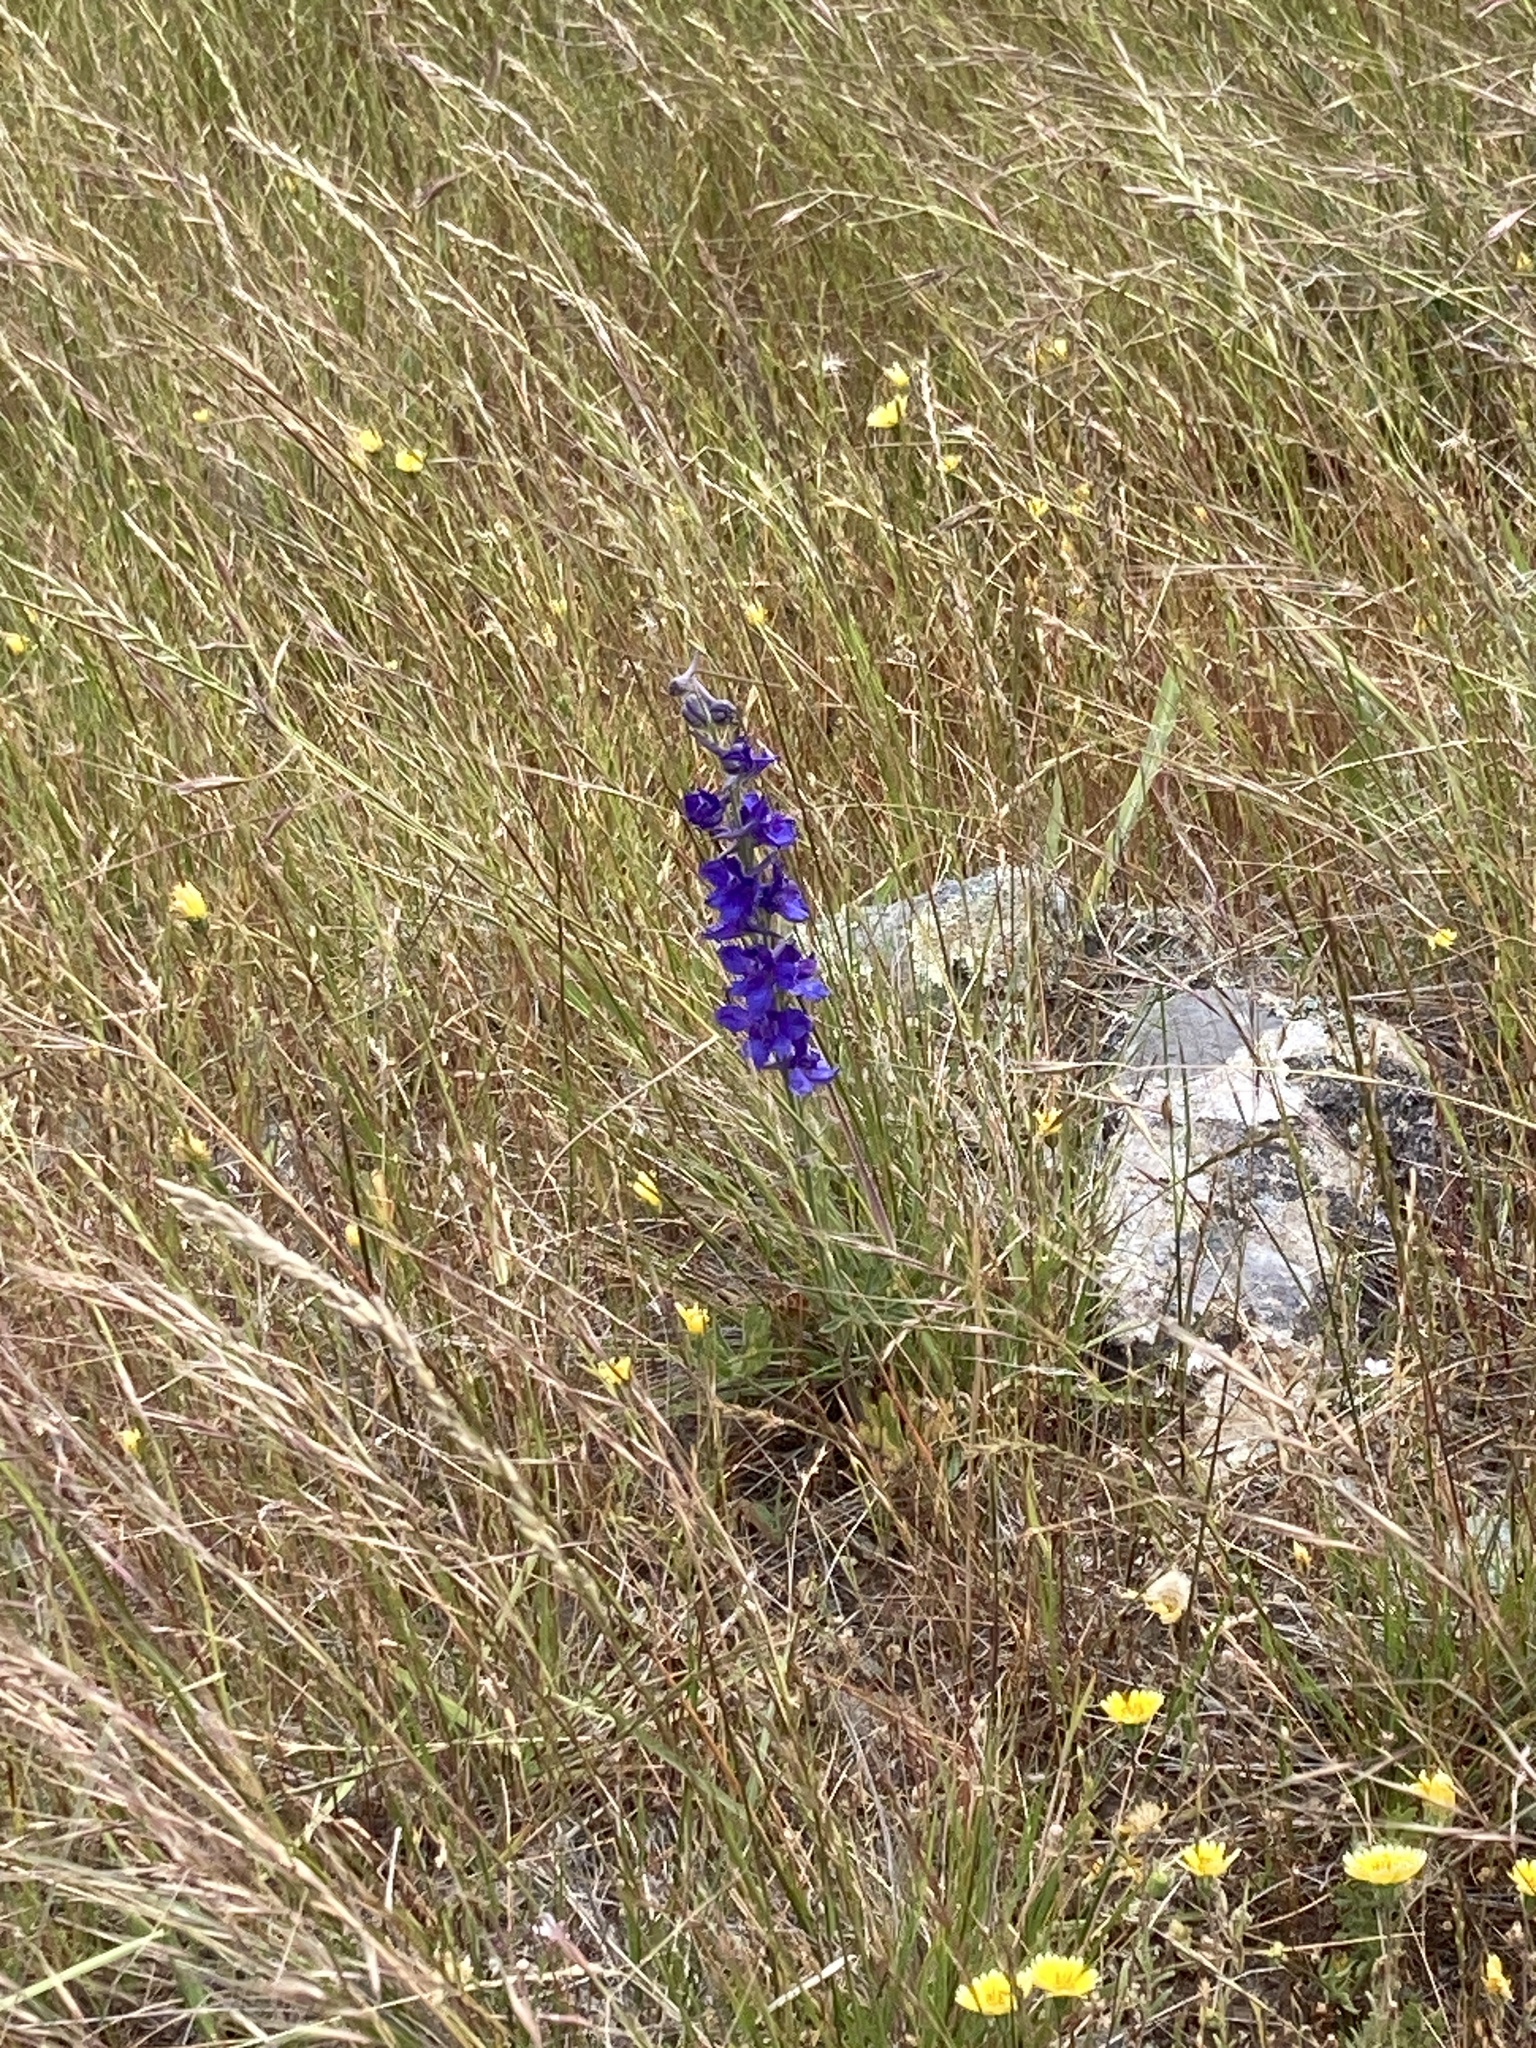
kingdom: Plantae
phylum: Tracheophyta
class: Magnoliopsida
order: Ranunculales
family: Ranunculaceae
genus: Delphinium
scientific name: Delphinium hesperium
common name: Western larkspur
